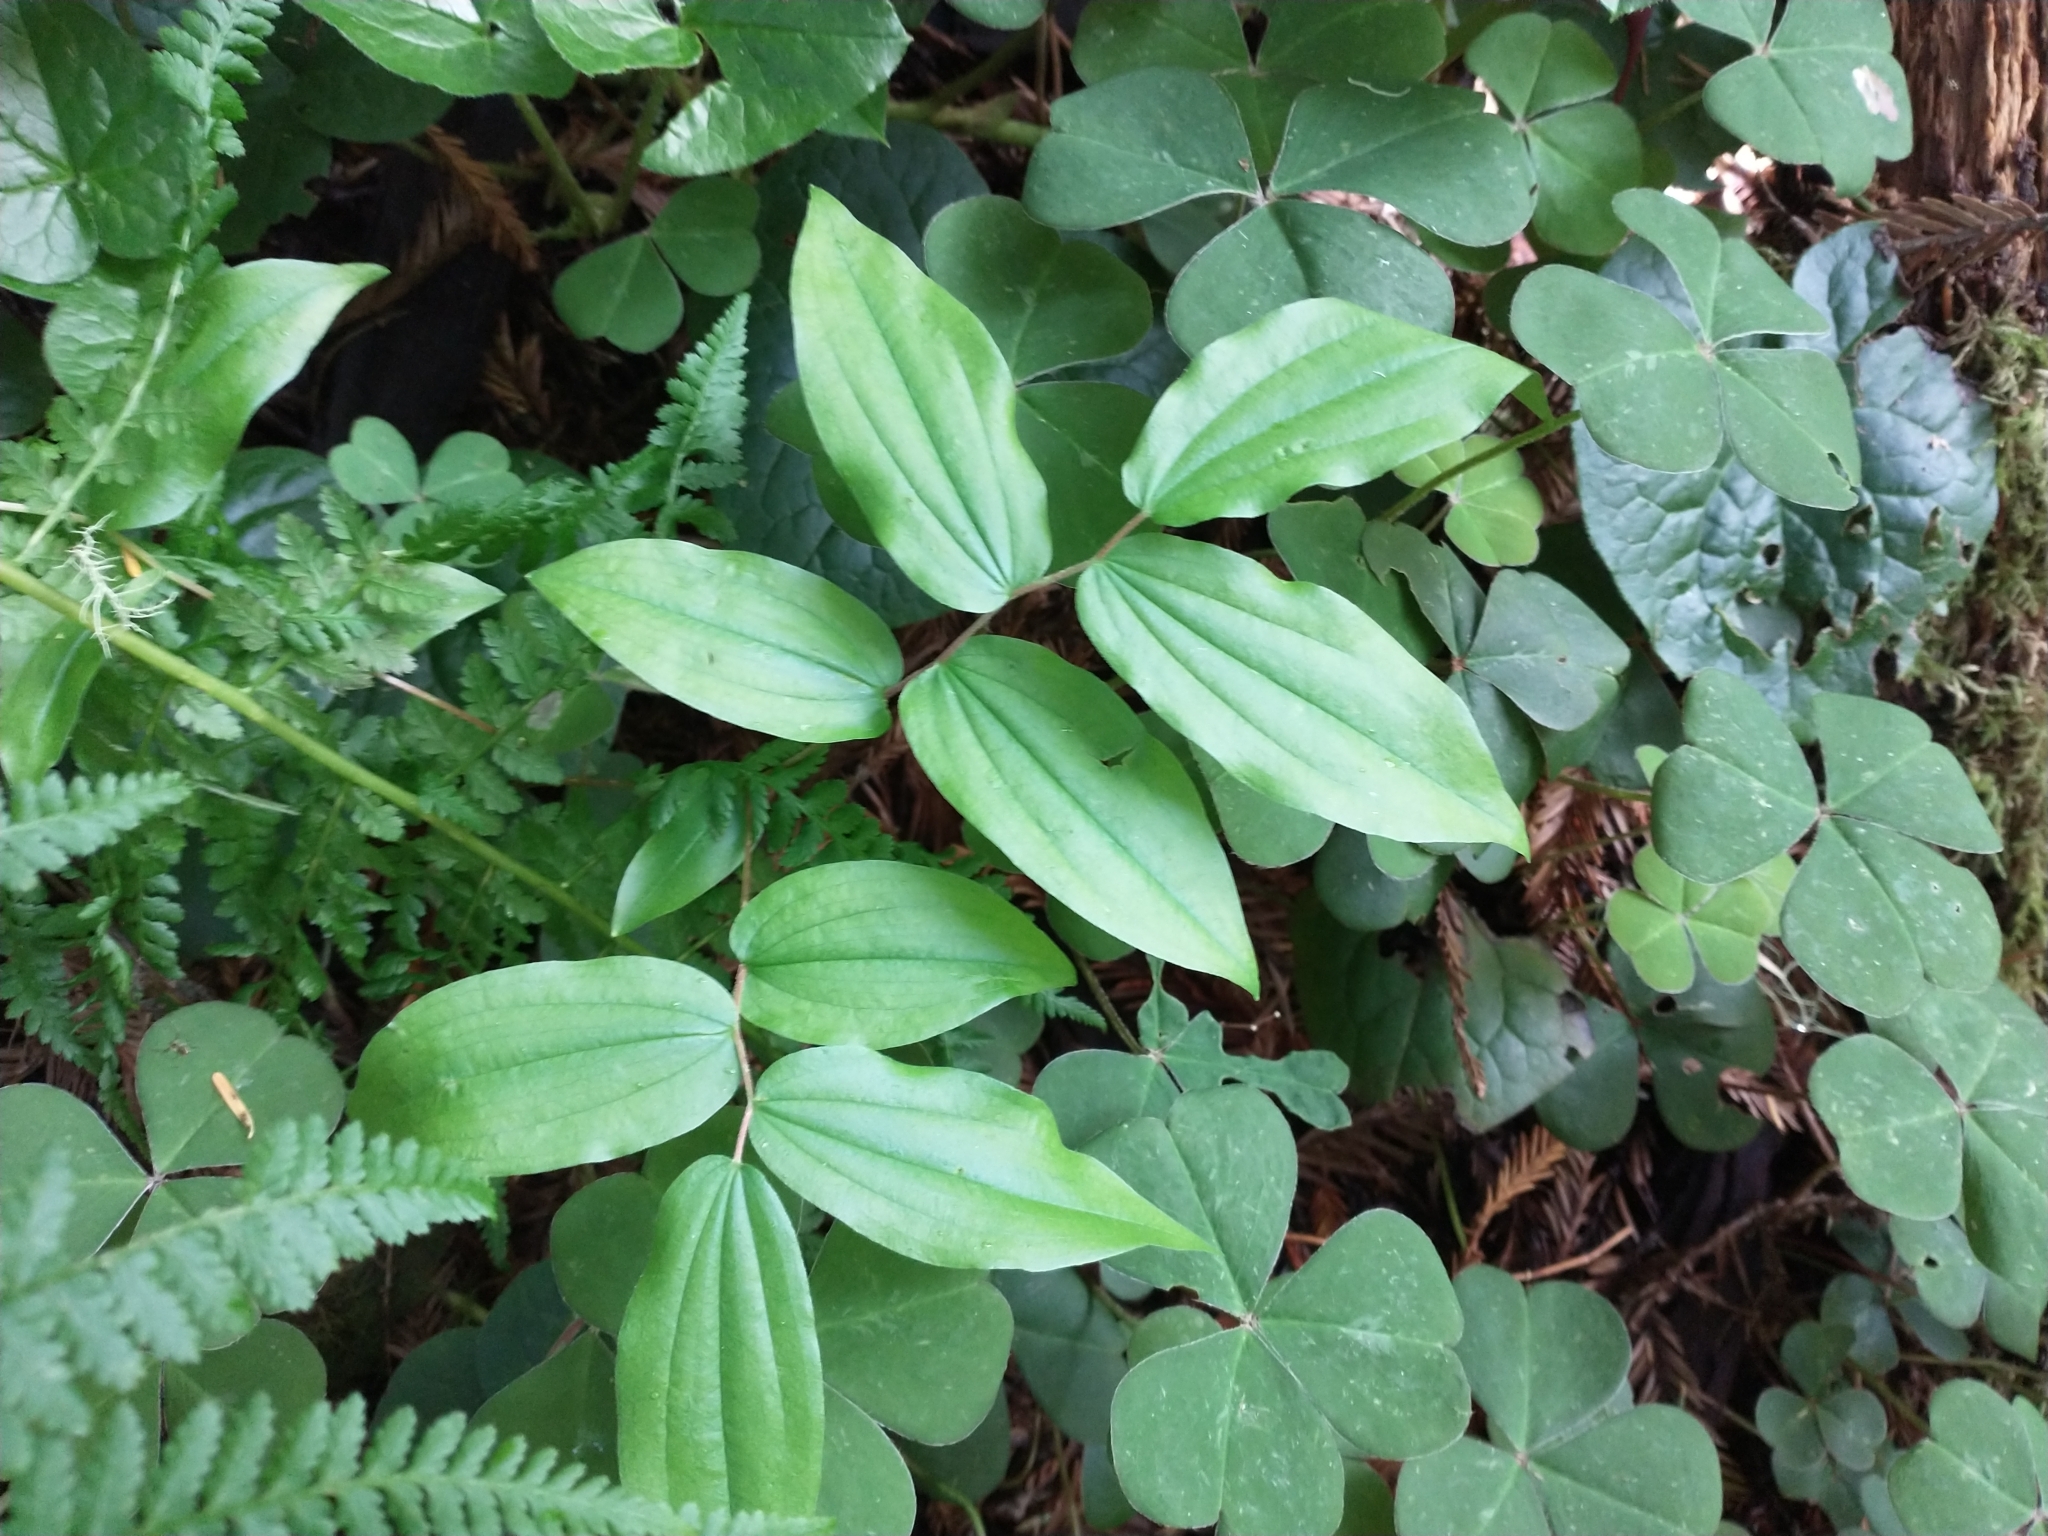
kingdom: Plantae
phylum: Tracheophyta
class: Liliopsida
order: Liliales
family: Liliaceae
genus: Prosartes
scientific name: Prosartes hookeri
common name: Fairy-bells
